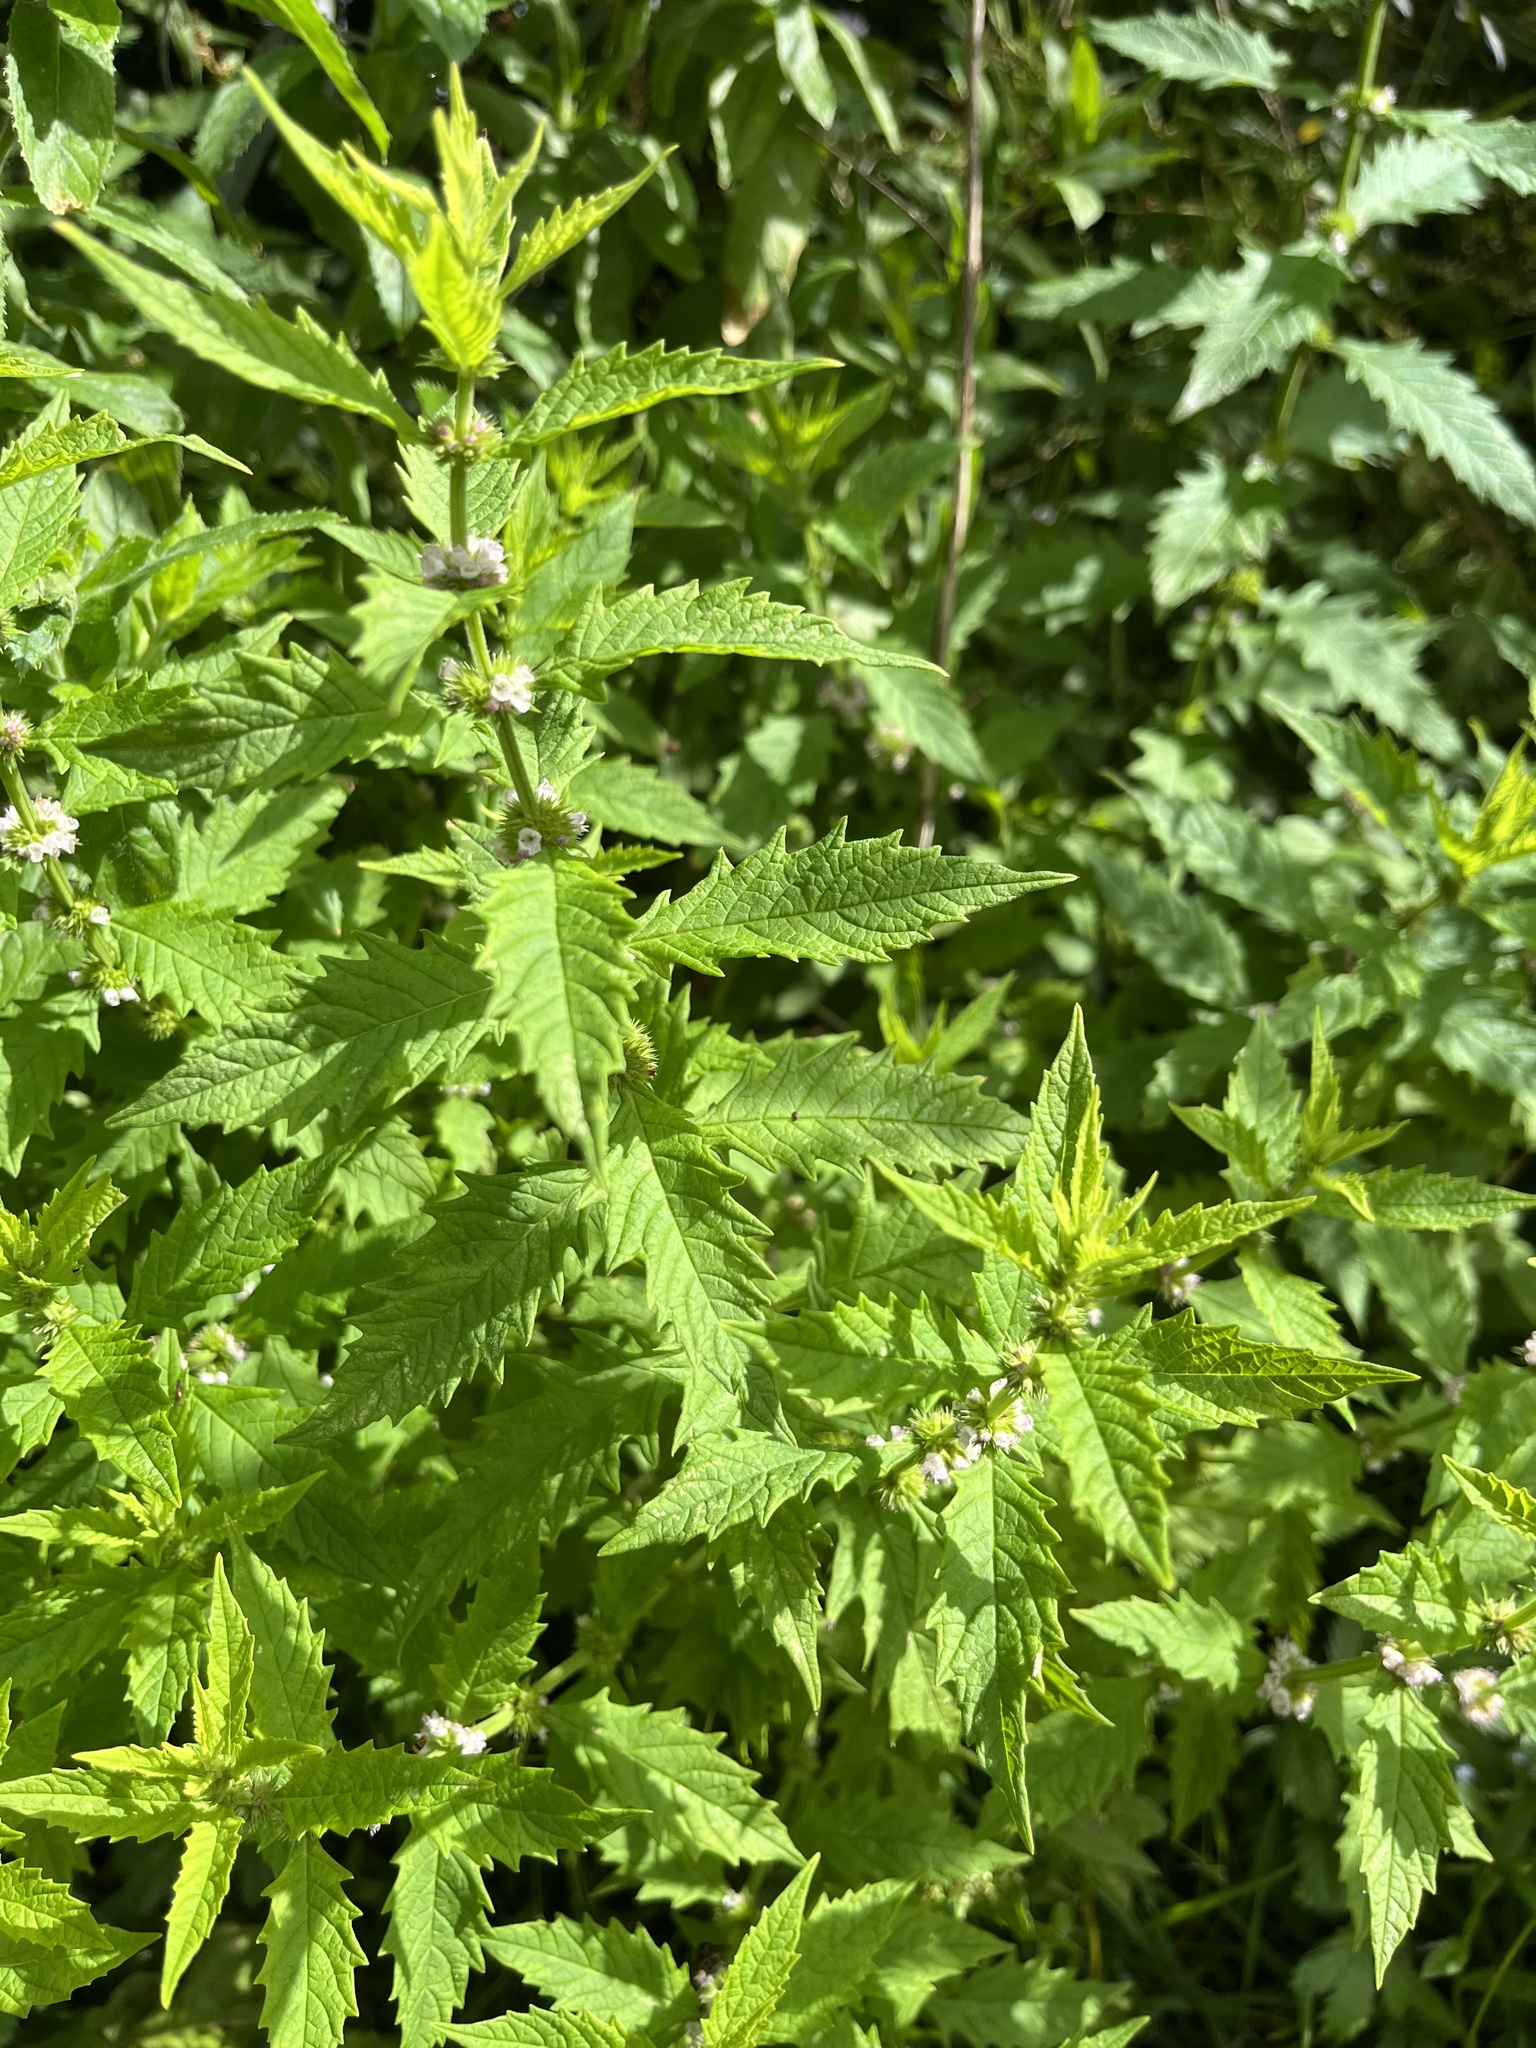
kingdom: Plantae
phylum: Tracheophyta
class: Magnoliopsida
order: Lamiales
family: Lamiaceae
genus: Lycopus
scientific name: Lycopus europaeus
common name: European bugleweed
